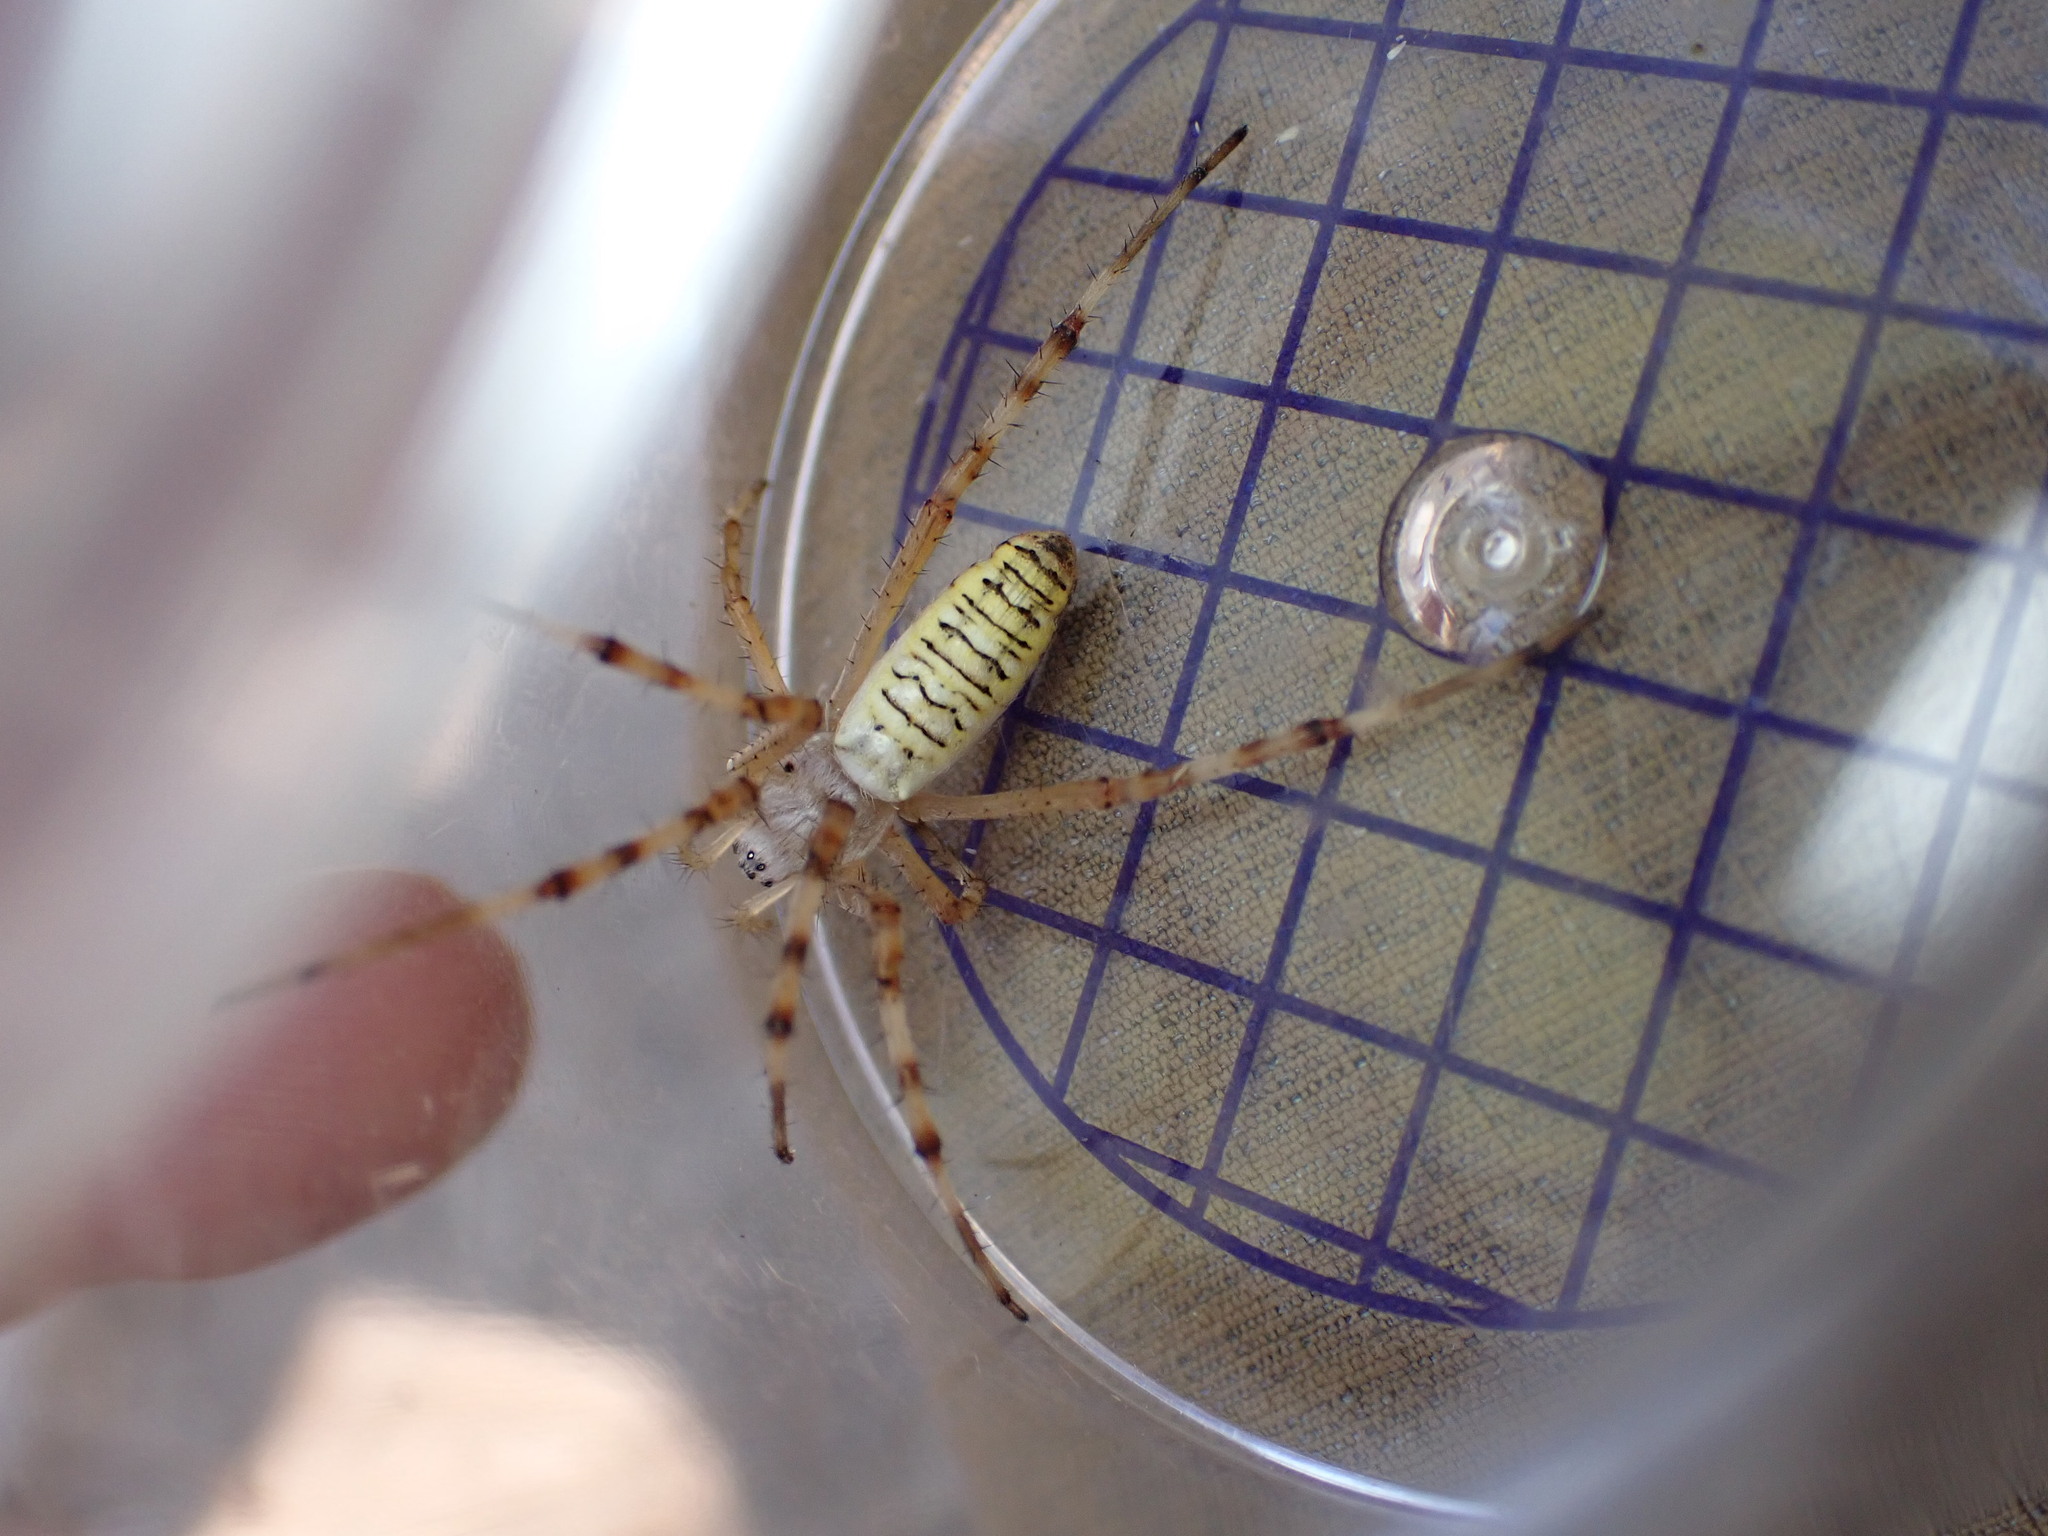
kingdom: Animalia
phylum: Arthropoda
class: Arachnida
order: Araneae
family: Araneidae
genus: Argiope
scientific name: Argiope bruennichi
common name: Wasp spider
